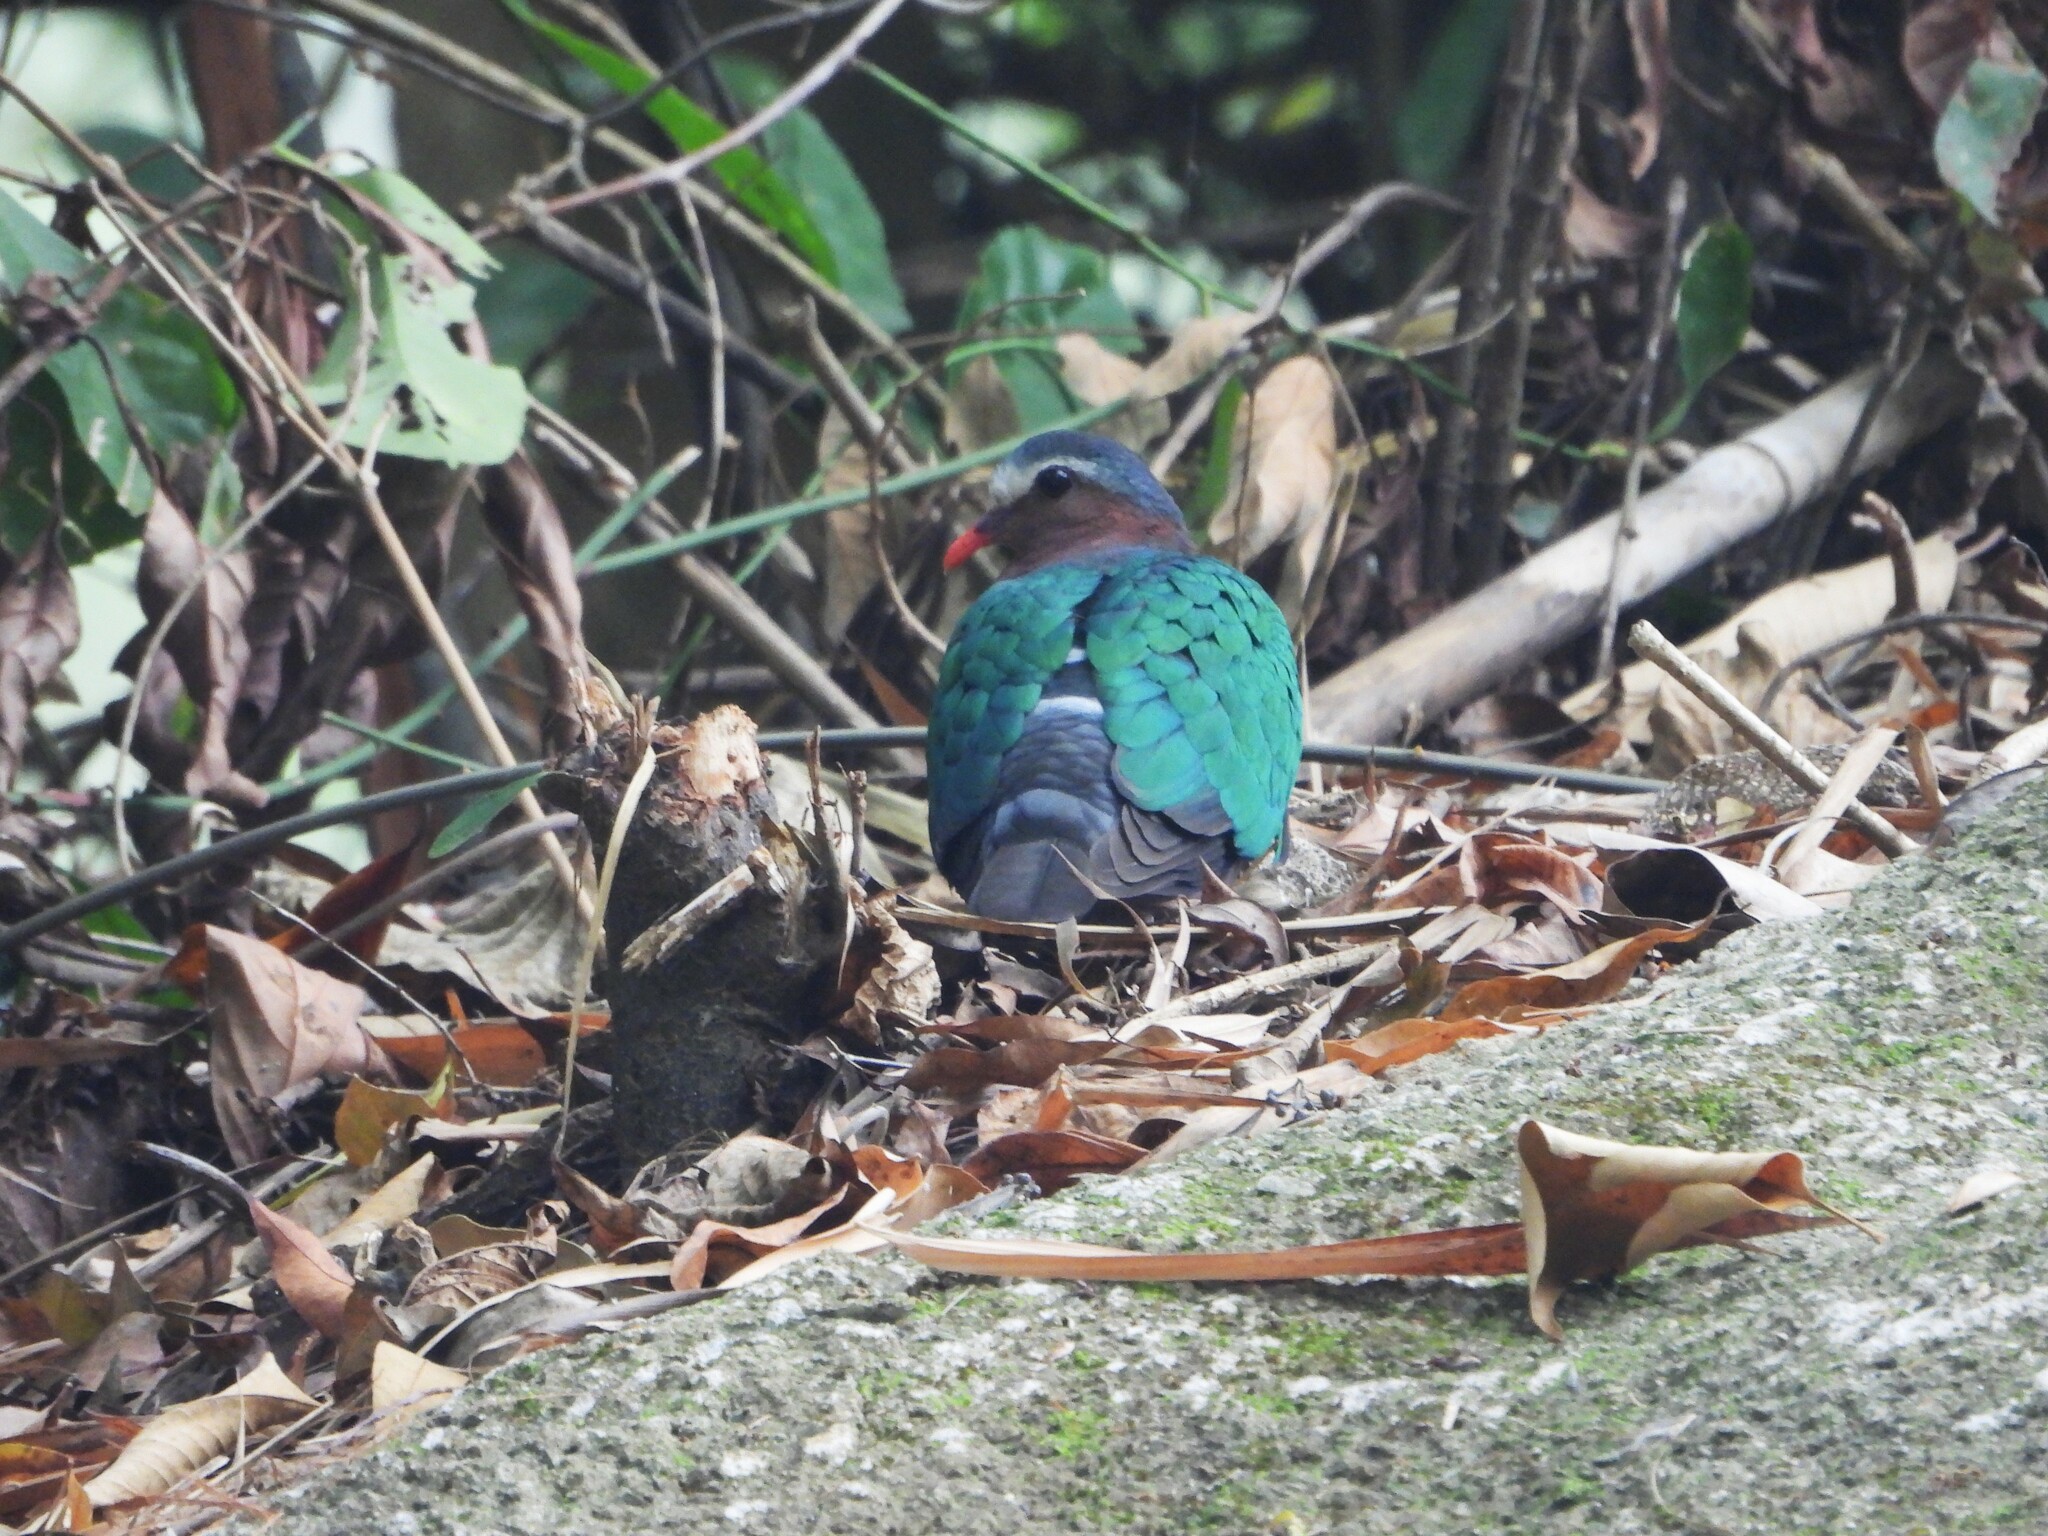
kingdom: Animalia
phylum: Chordata
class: Aves
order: Columbiformes
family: Columbidae
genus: Chalcophaps
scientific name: Chalcophaps indica
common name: Common emerald dove
